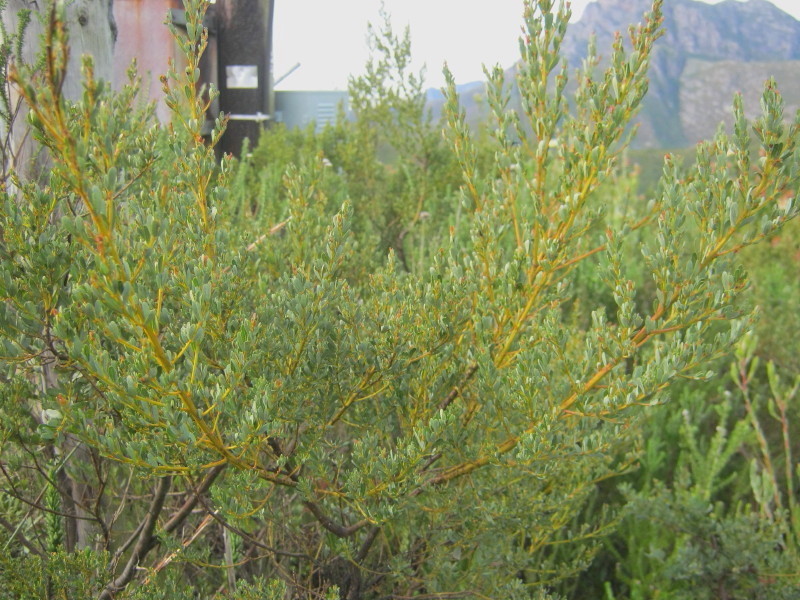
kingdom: Plantae
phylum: Tracheophyta
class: Magnoliopsida
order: Fabales
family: Fabaceae
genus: Cyclopia
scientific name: Cyclopia subternata
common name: Honeybush tea
